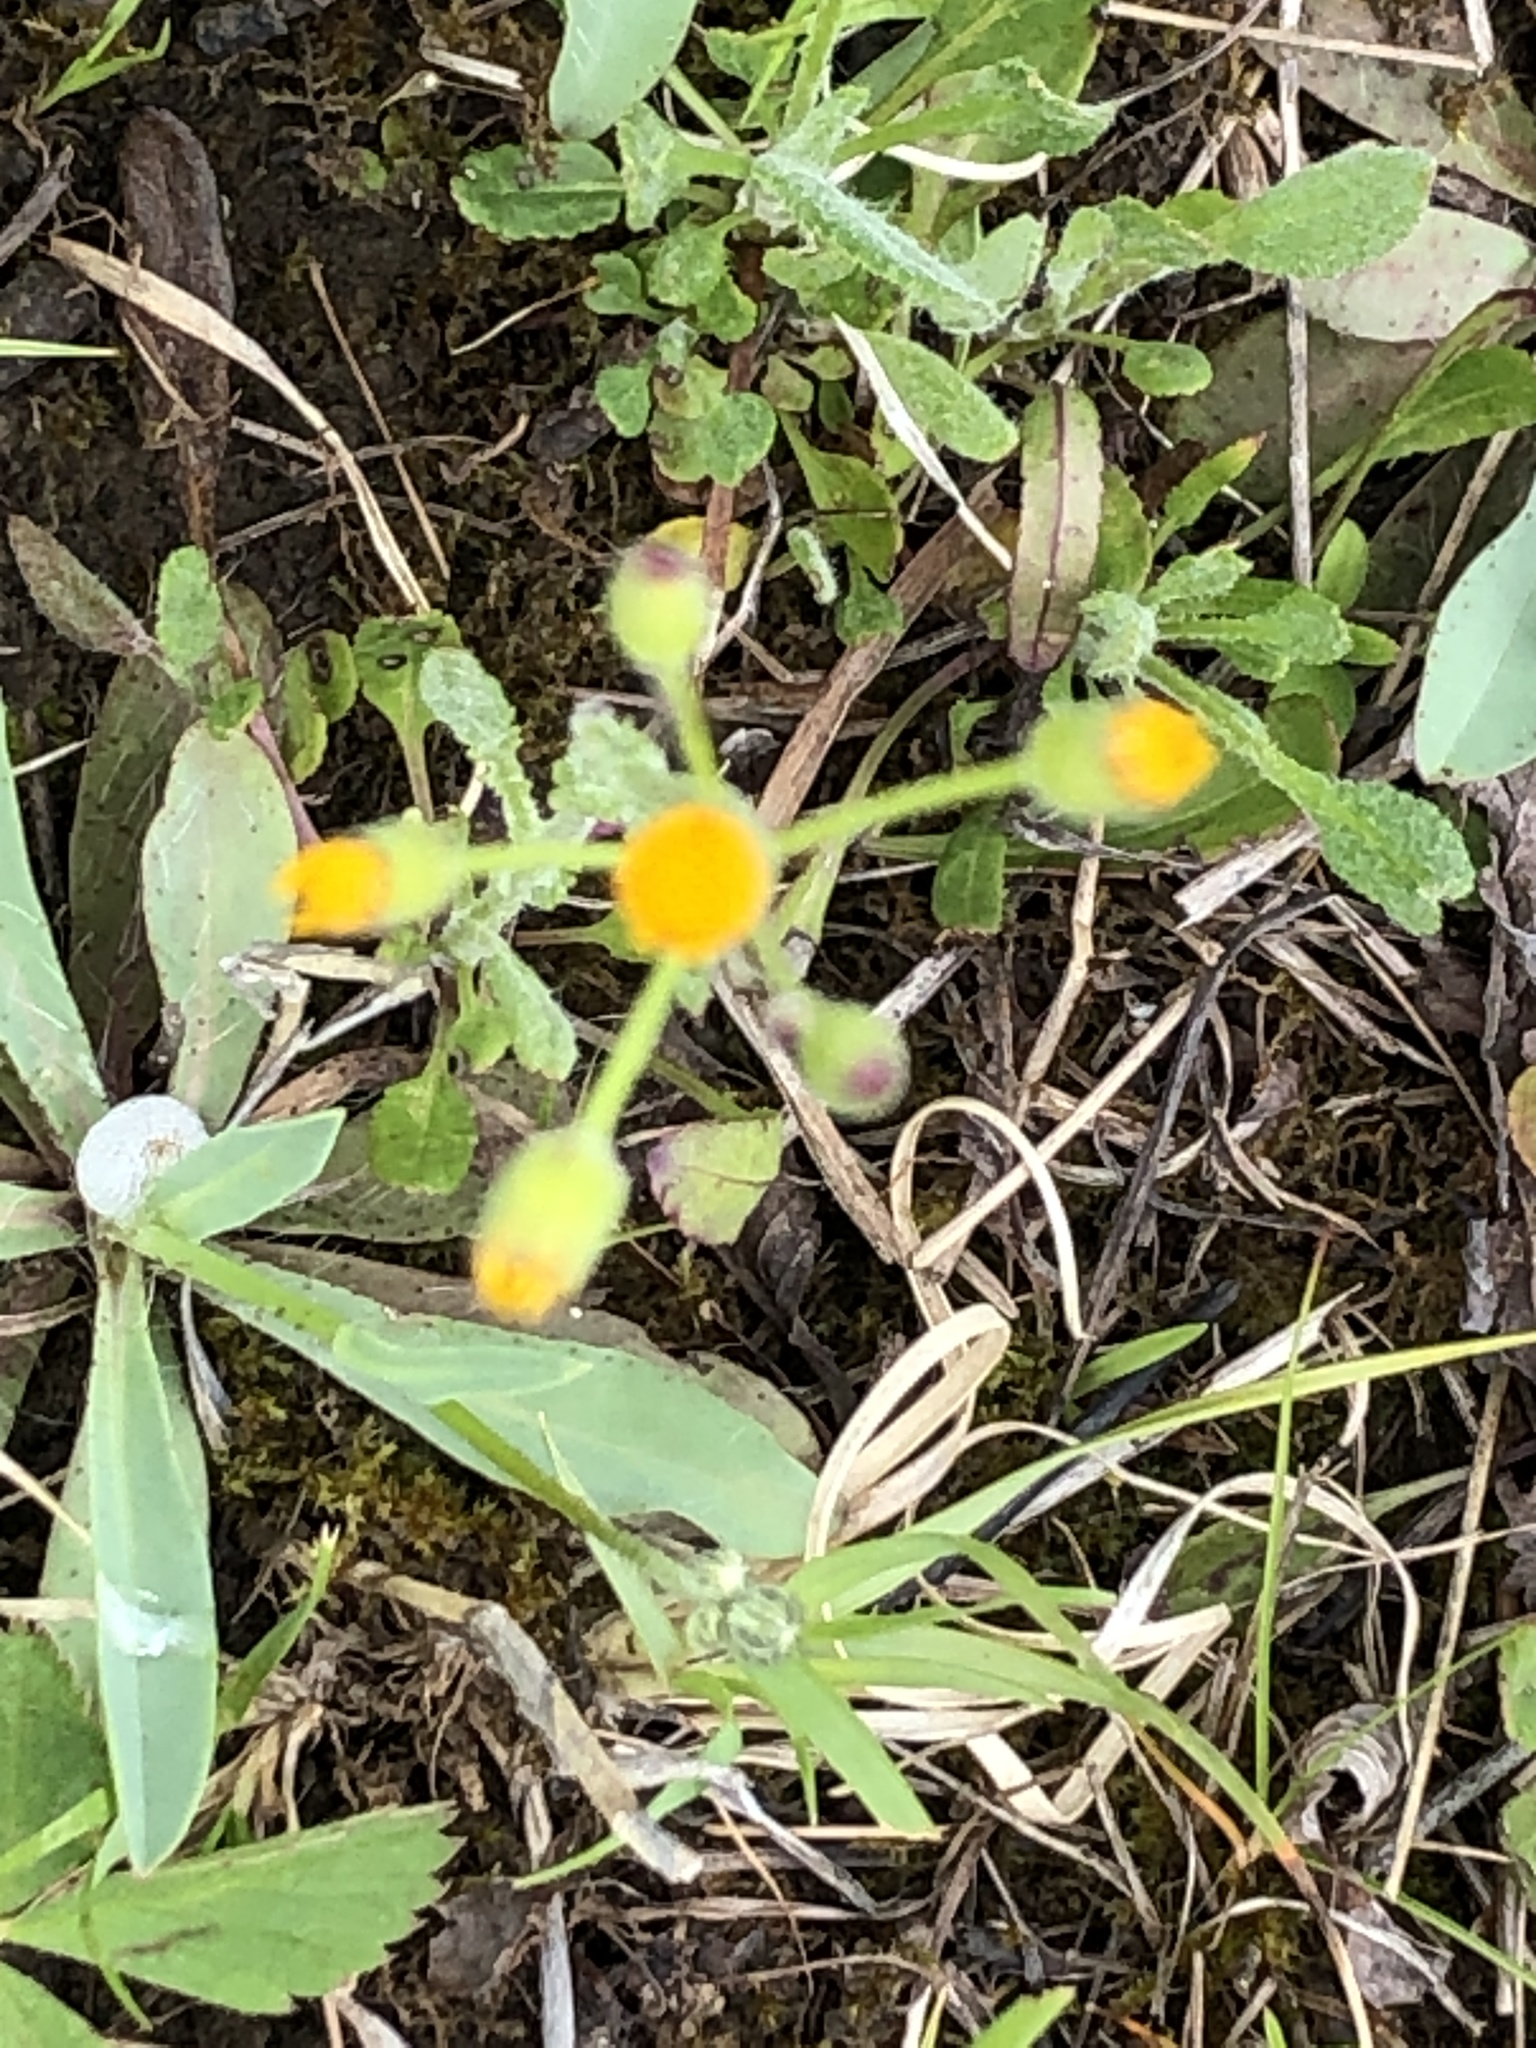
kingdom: Plantae
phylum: Tracheophyta
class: Magnoliopsida
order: Asterales
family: Asteraceae
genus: Packera
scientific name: Packera paupercula
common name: Balsam groundsel
